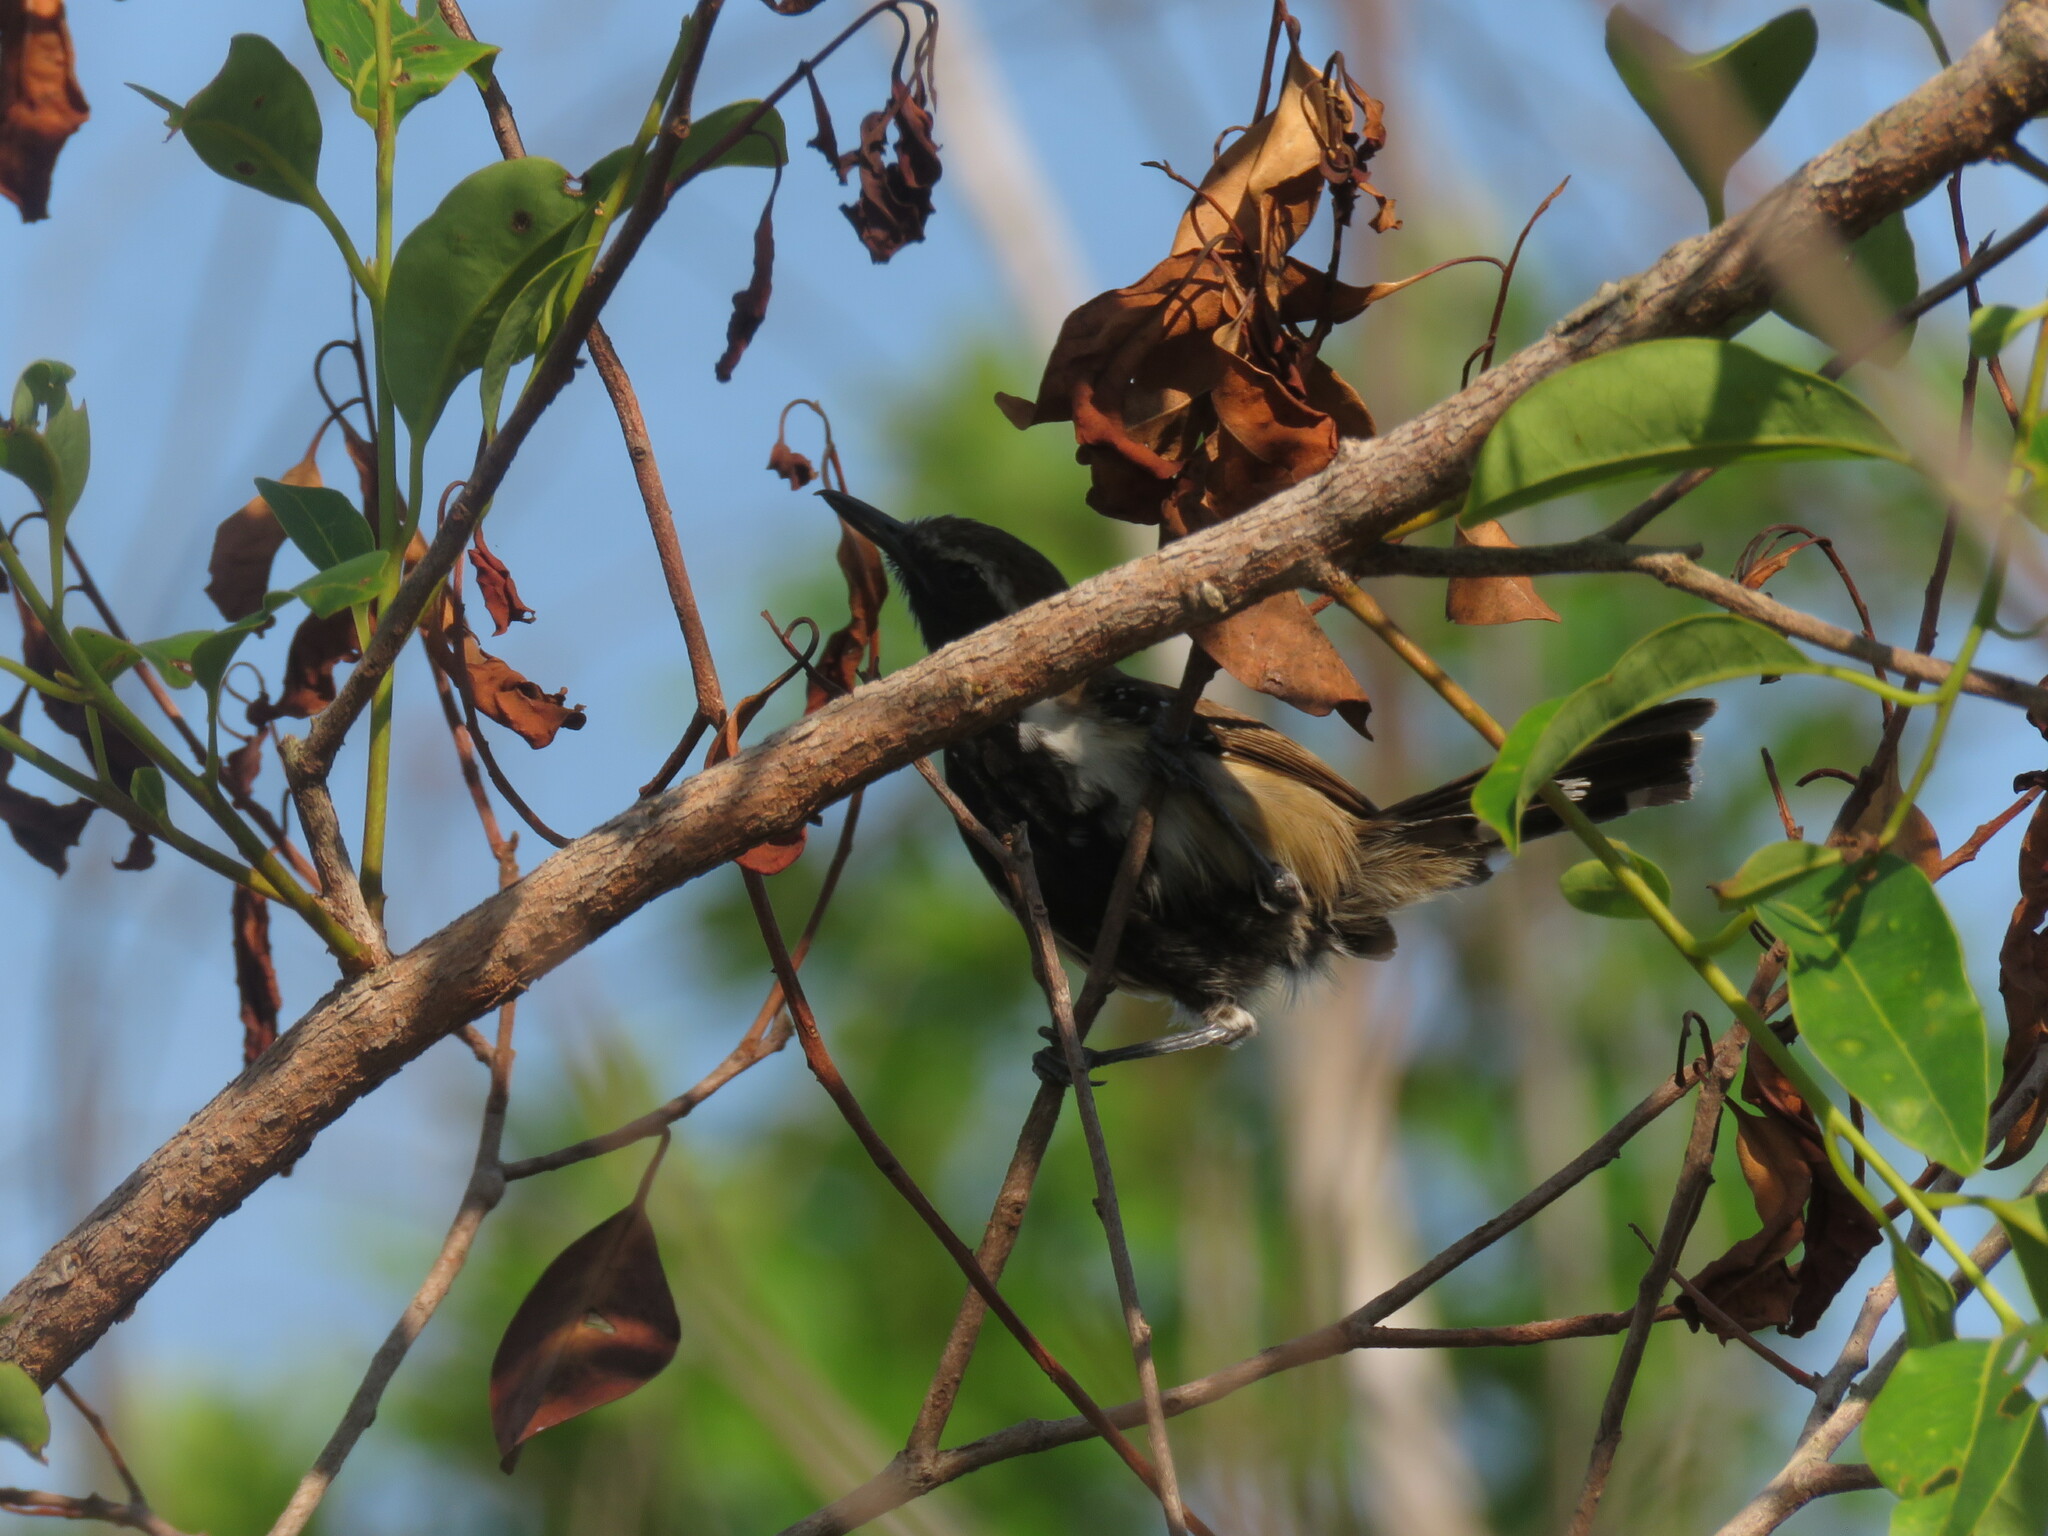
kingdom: Animalia
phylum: Chordata
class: Aves
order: Passeriformes
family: Thamnophilidae
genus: Formicivora
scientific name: Formicivora rufa
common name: Rusty-backed antwren
